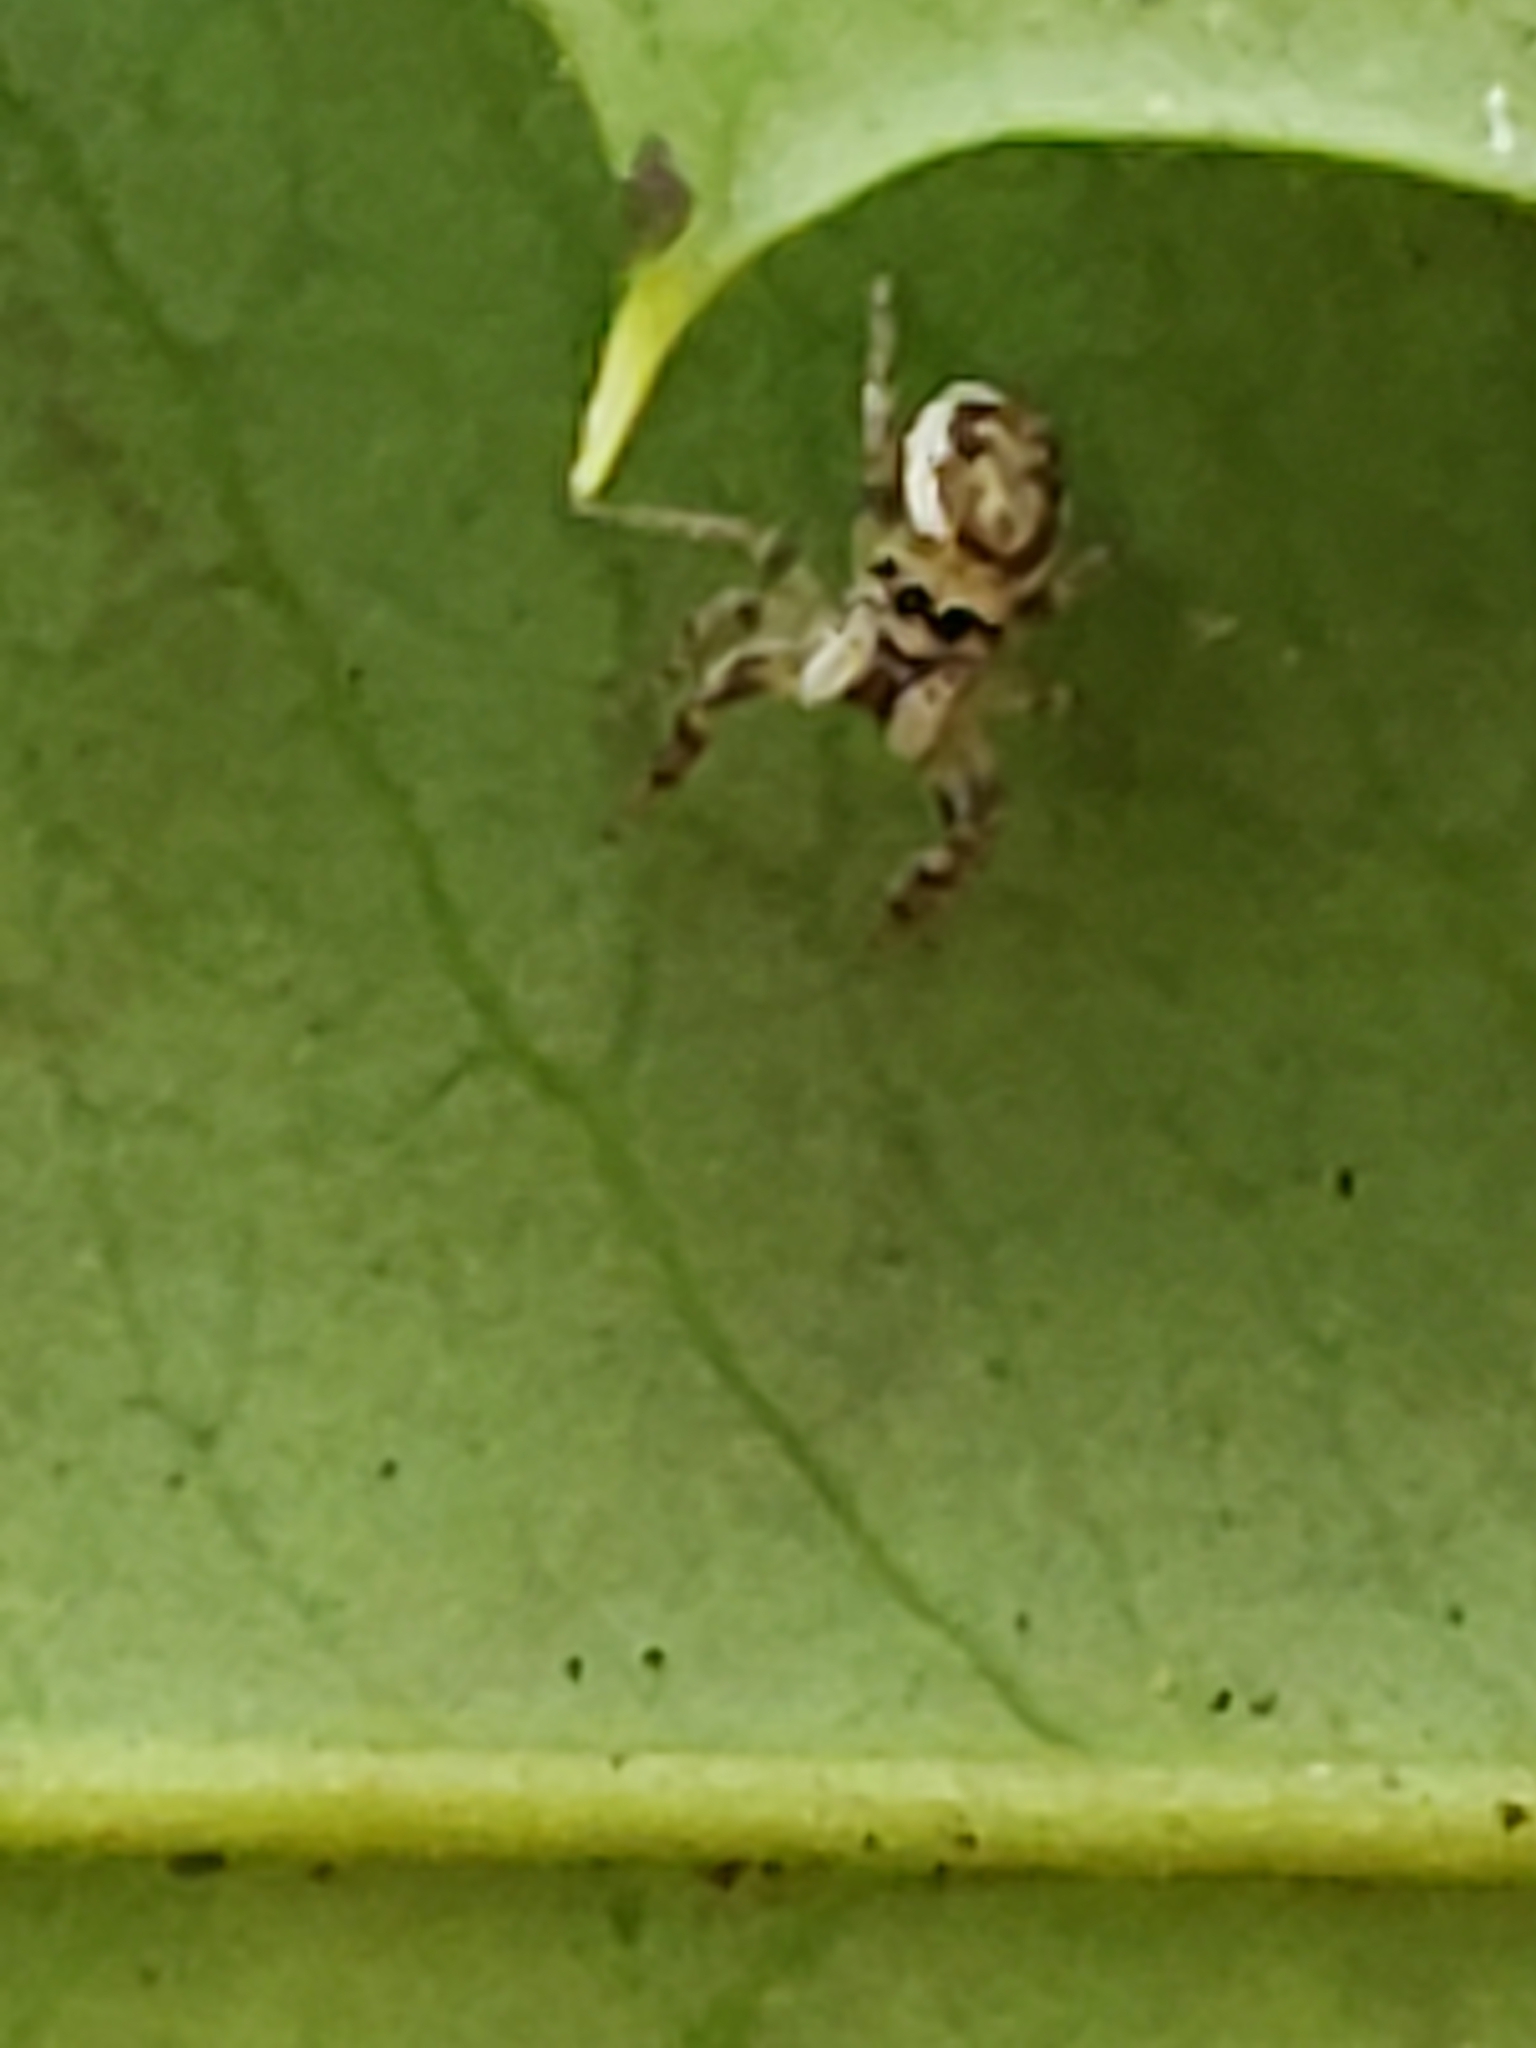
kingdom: Animalia
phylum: Arthropoda
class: Arachnida
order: Araneae
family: Salticidae
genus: Pelegrina
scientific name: Pelegrina galathea
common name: Jumping spiders
